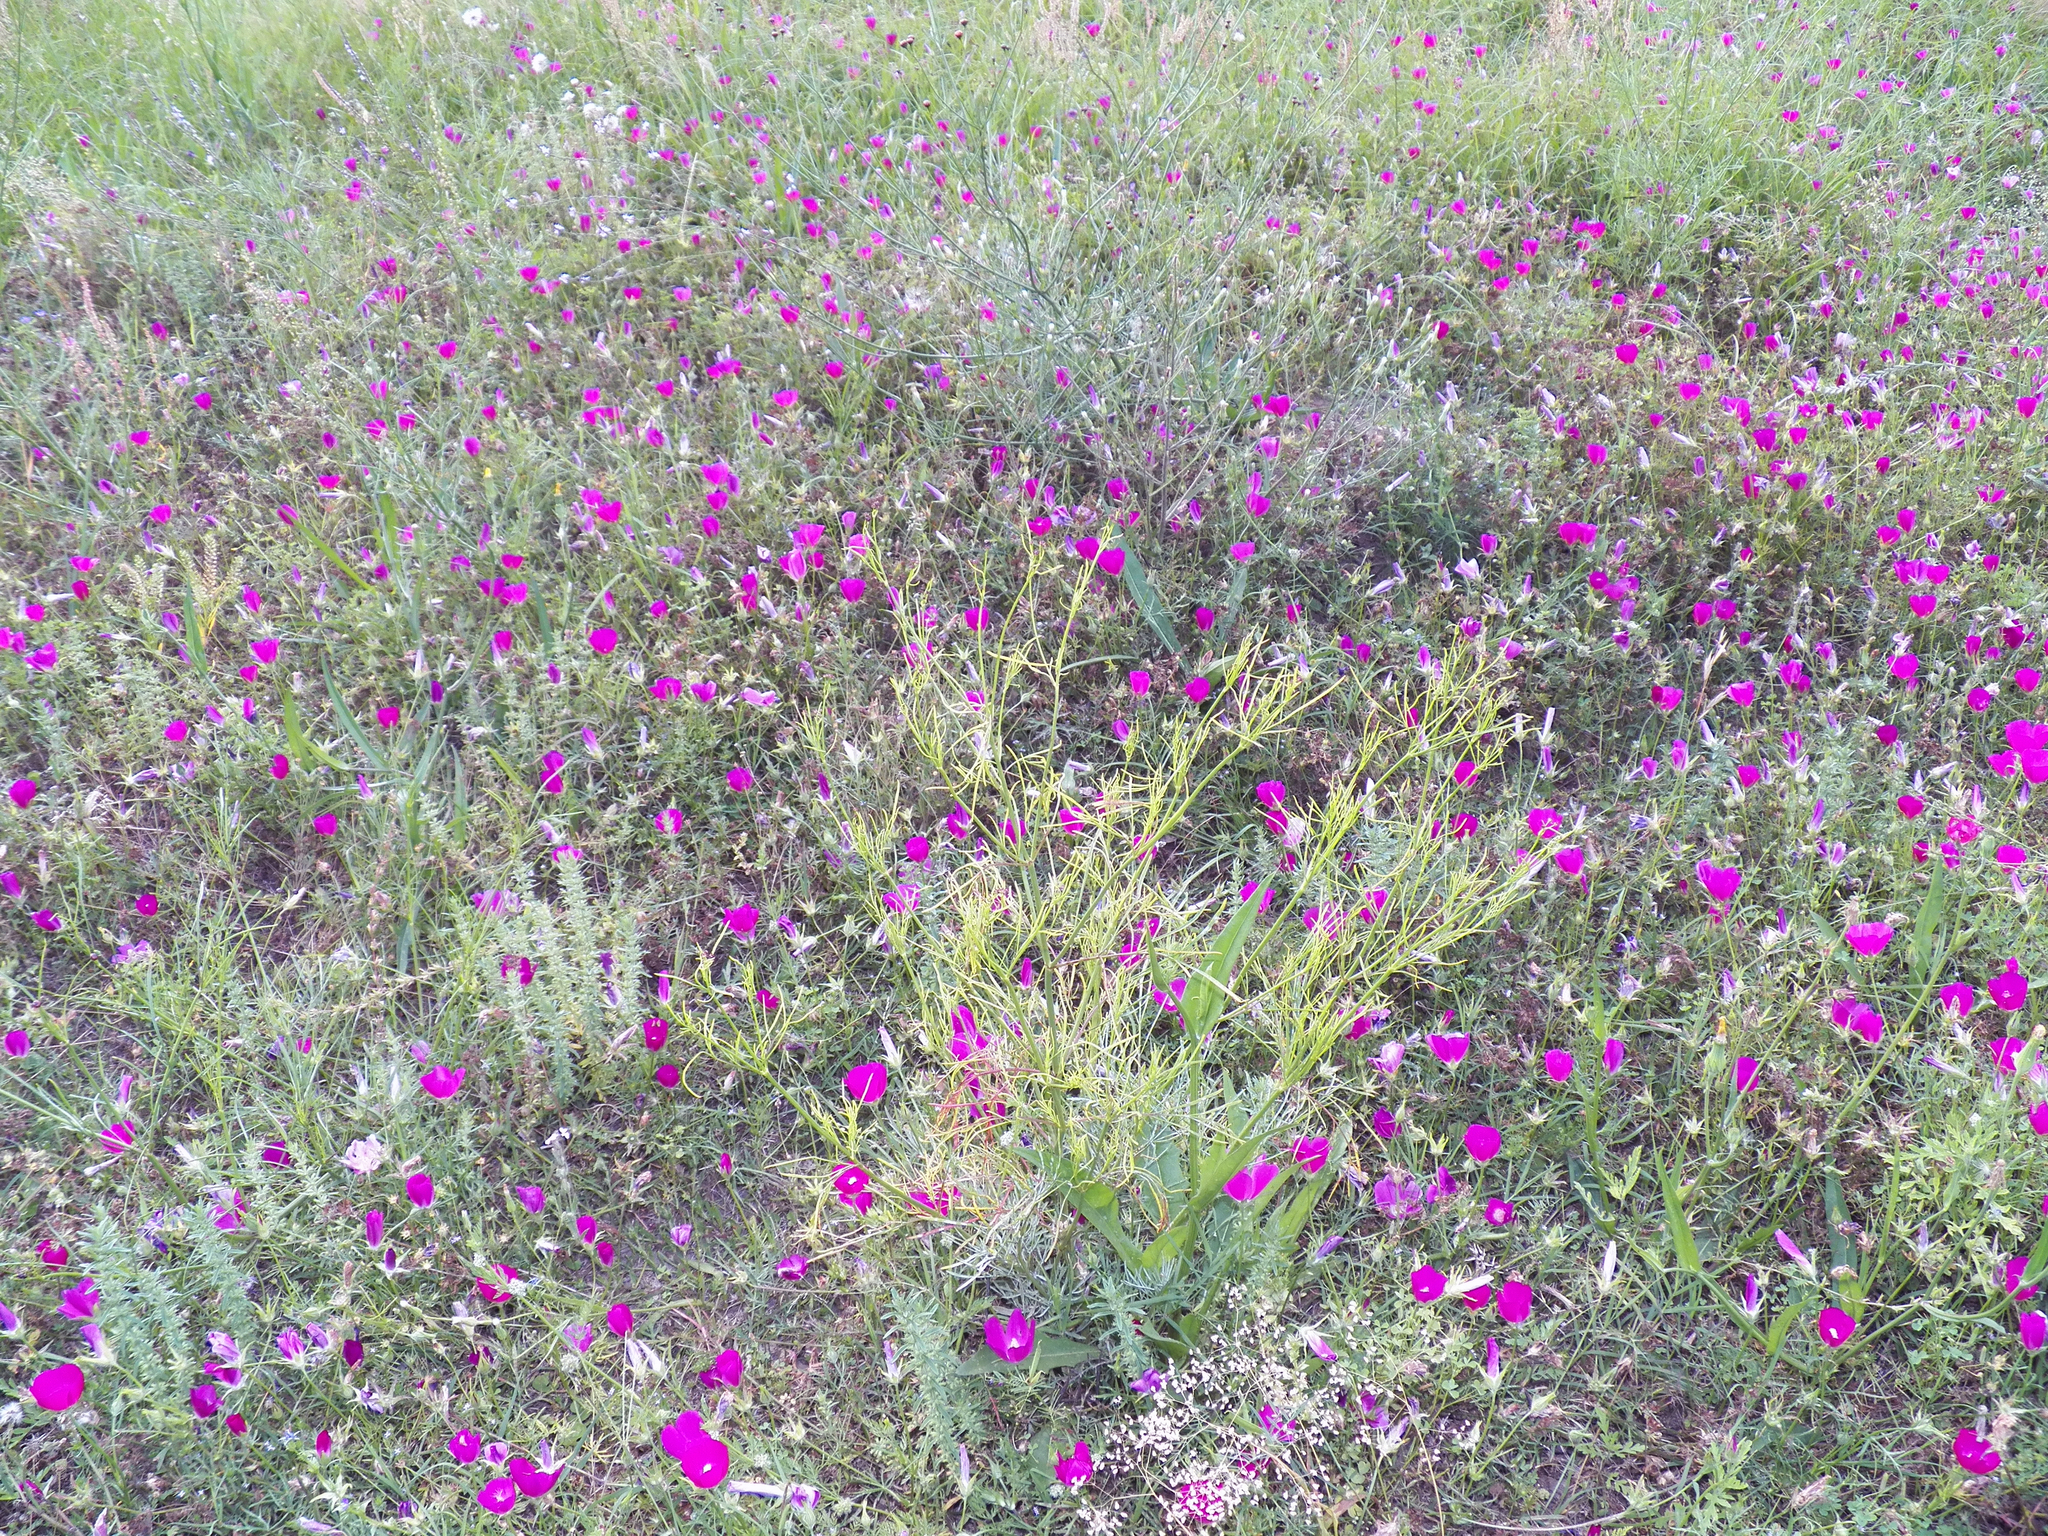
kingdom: Plantae
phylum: Tracheophyta
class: Magnoliopsida
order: Malvales
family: Malvaceae
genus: Callirhoe
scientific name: Callirhoe involucrata
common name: Purple poppy-mallow
